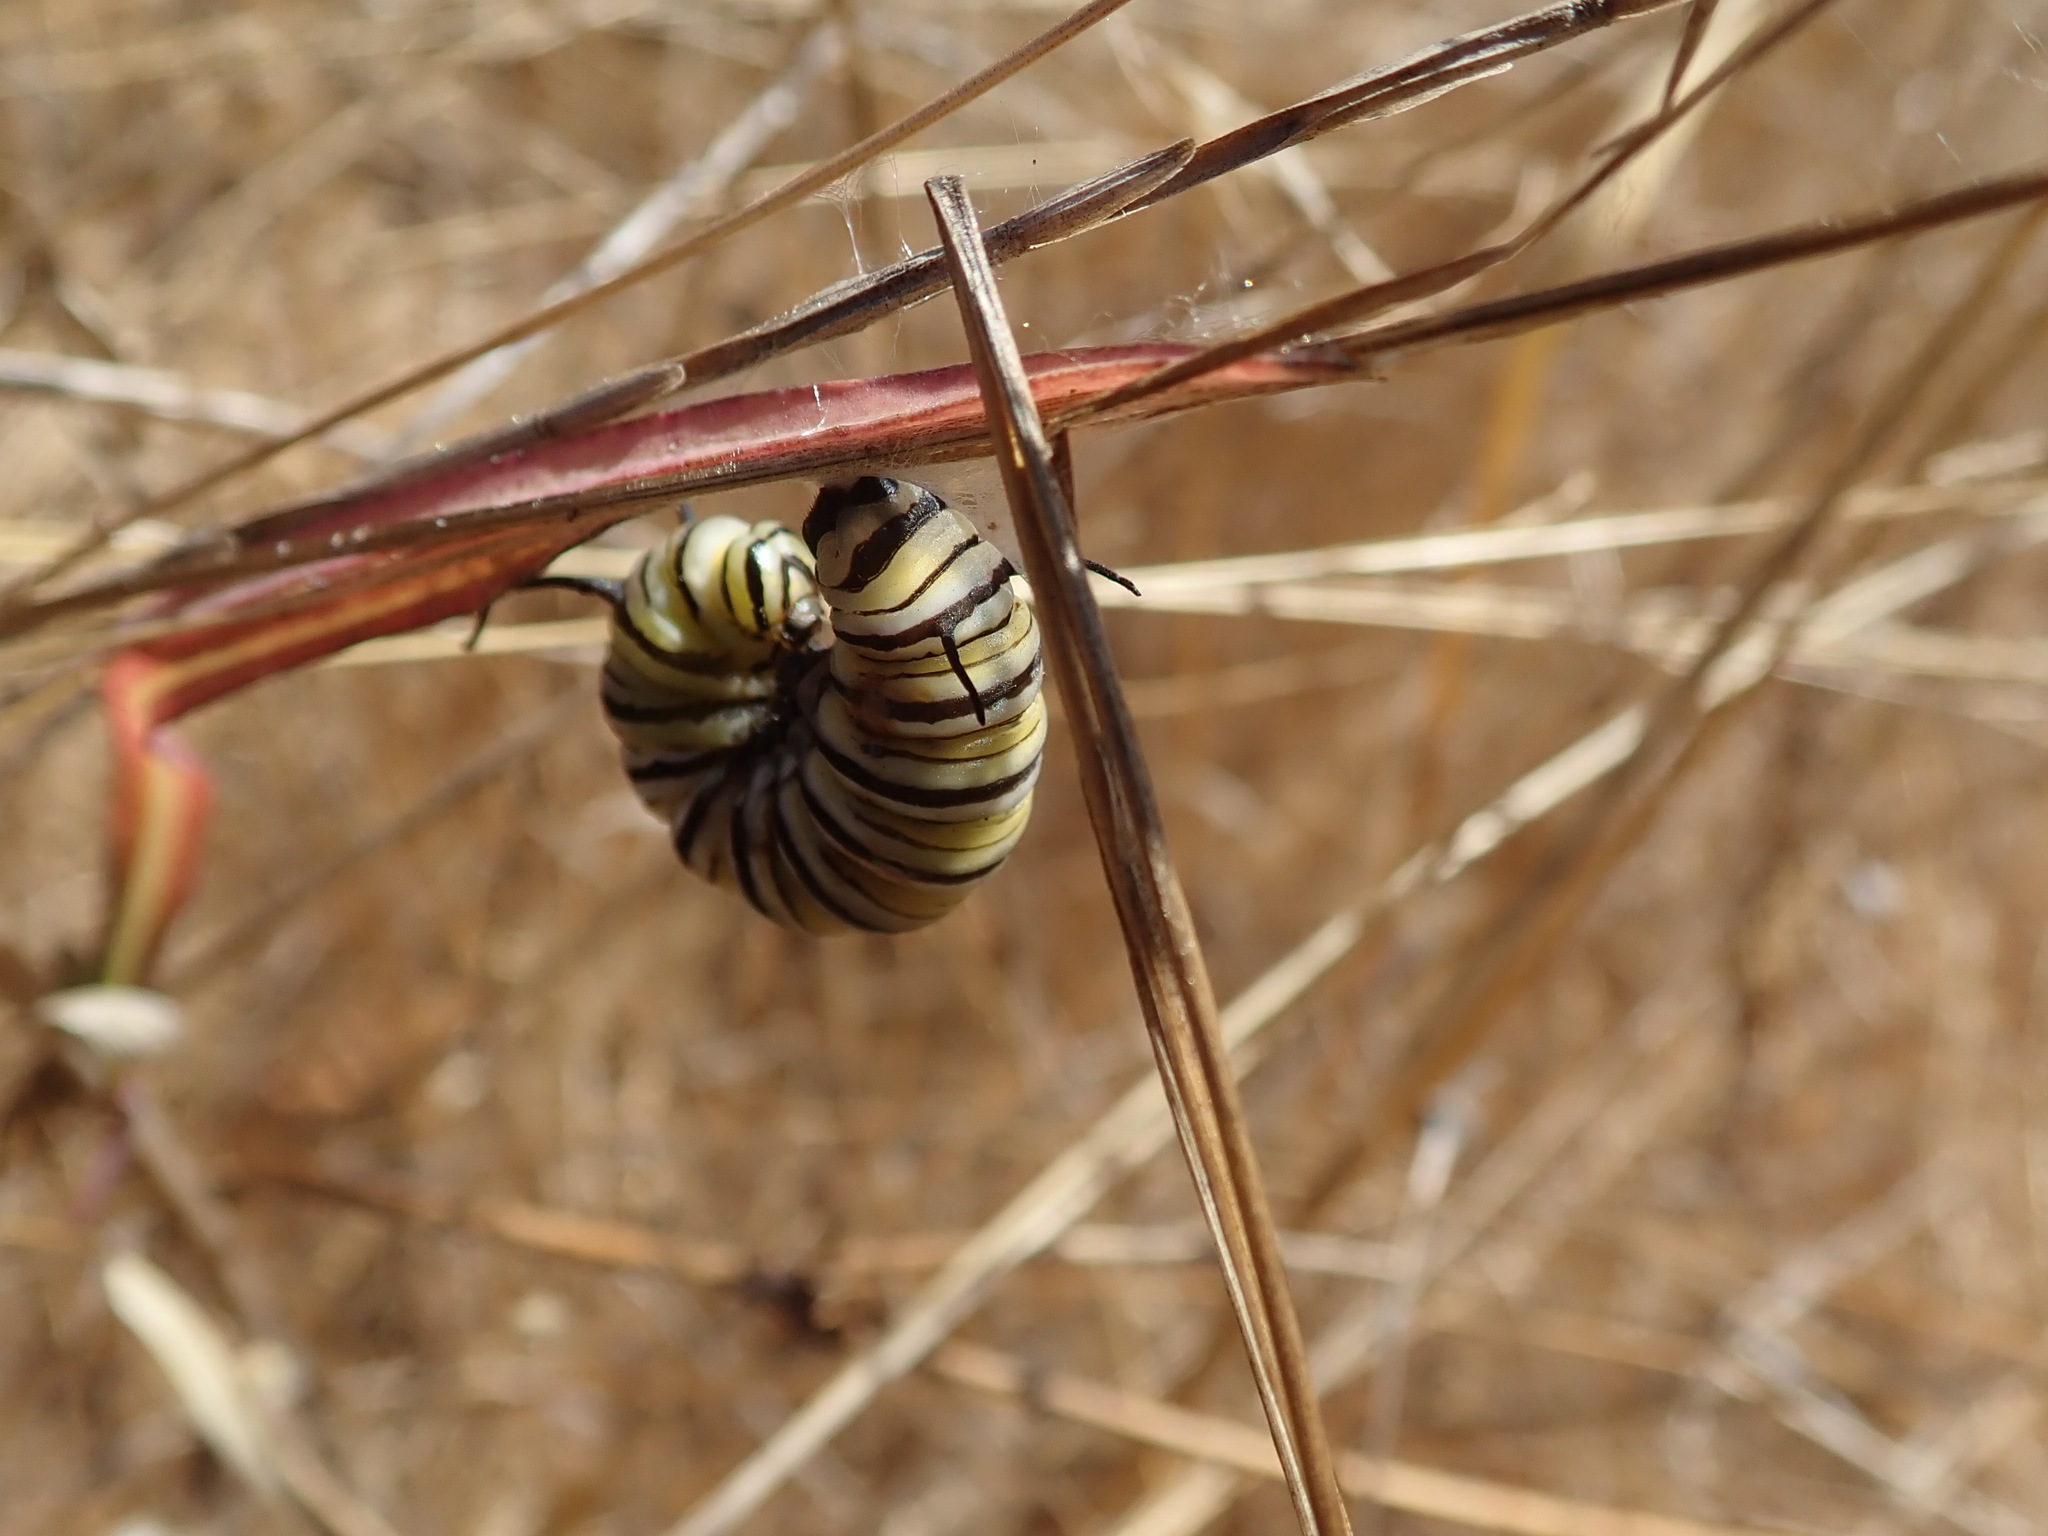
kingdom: Animalia
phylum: Arthropoda
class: Insecta
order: Lepidoptera
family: Nymphalidae
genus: Danaus
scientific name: Danaus plexippus
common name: Monarch
